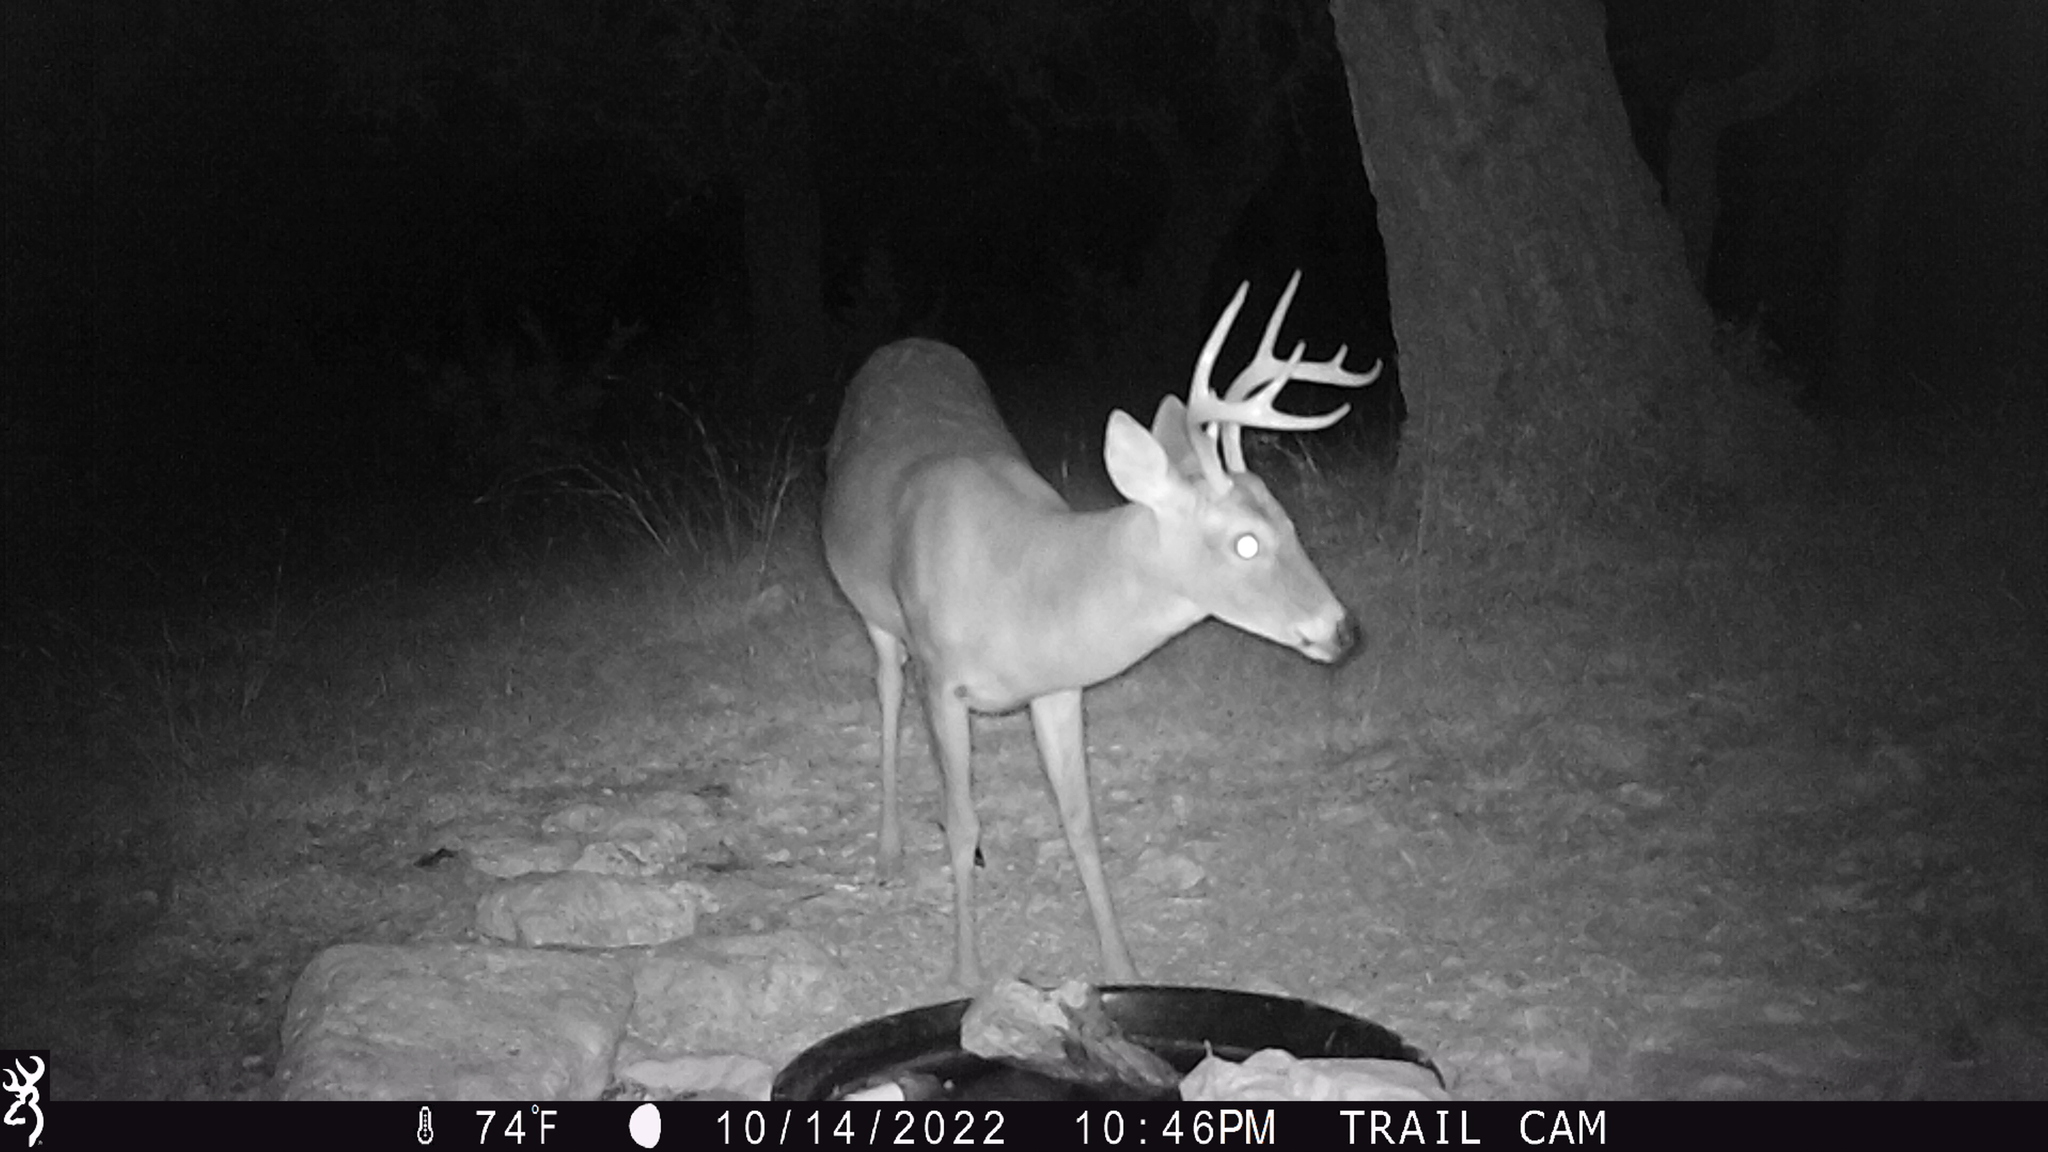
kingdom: Animalia
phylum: Chordata
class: Mammalia
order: Artiodactyla
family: Cervidae
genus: Odocoileus
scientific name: Odocoileus virginianus
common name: White-tailed deer
